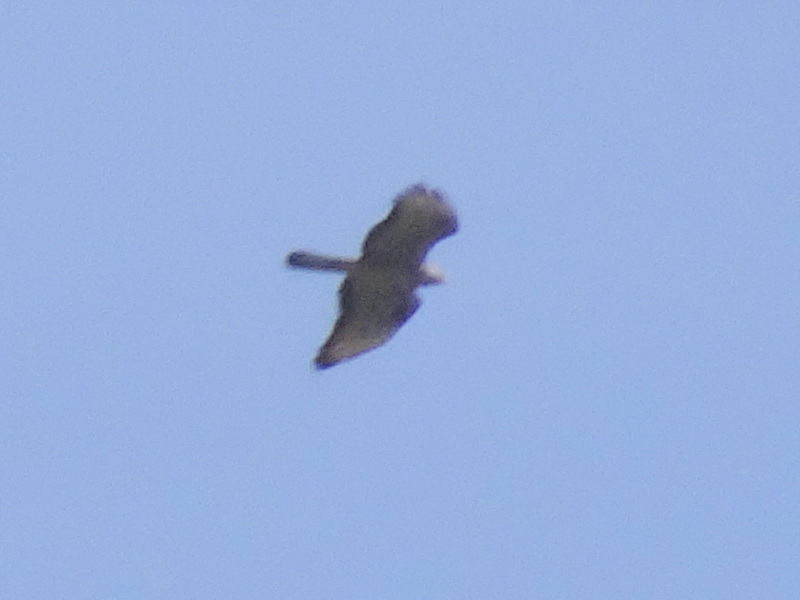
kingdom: Animalia
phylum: Chordata
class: Aves
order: Accipitriformes
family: Accipitridae
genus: Pernis
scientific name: Pernis apivorus
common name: European honey buzzard
